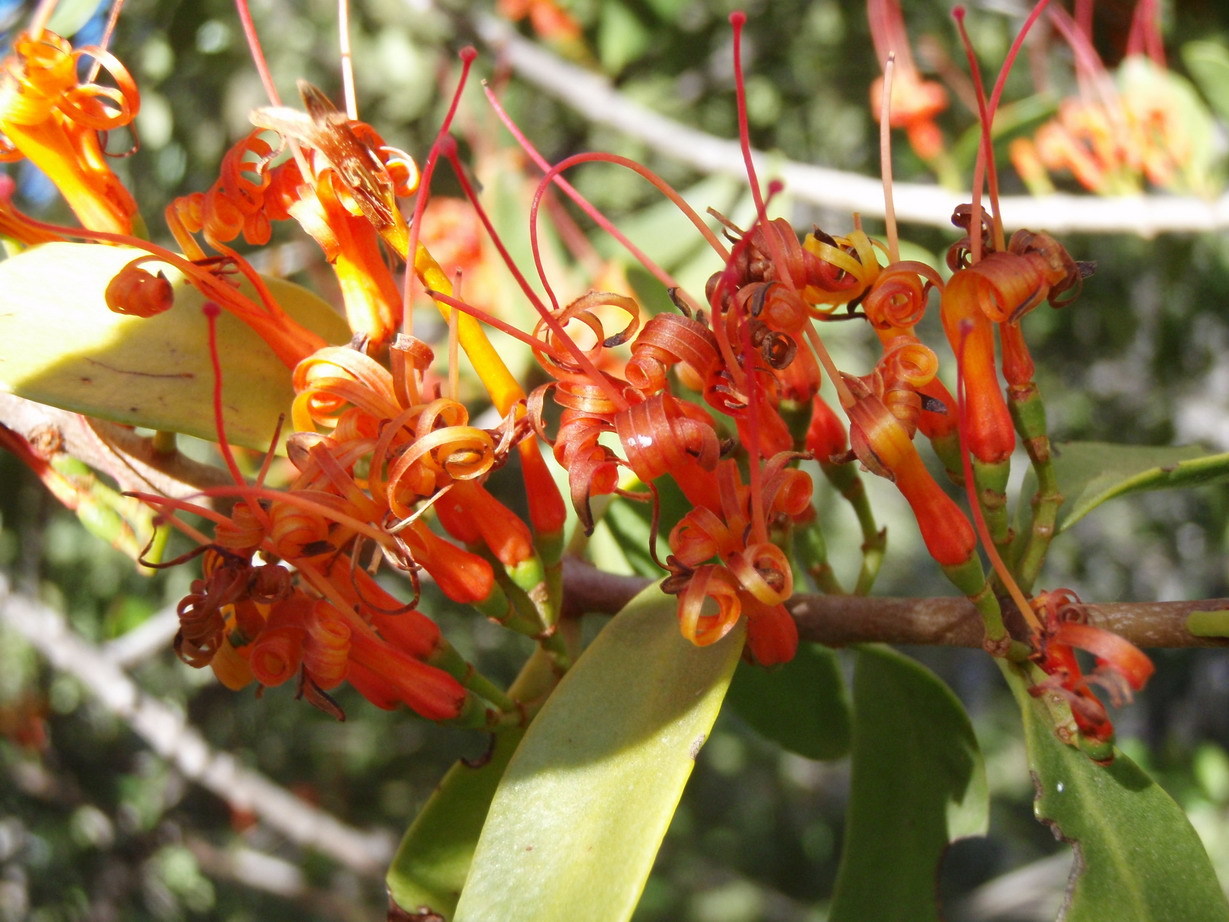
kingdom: Plantae
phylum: Tracheophyta
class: Magnoliopsida
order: Santalales
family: Loranthaceae
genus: Moquiniella
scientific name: Moquiniella rubra
